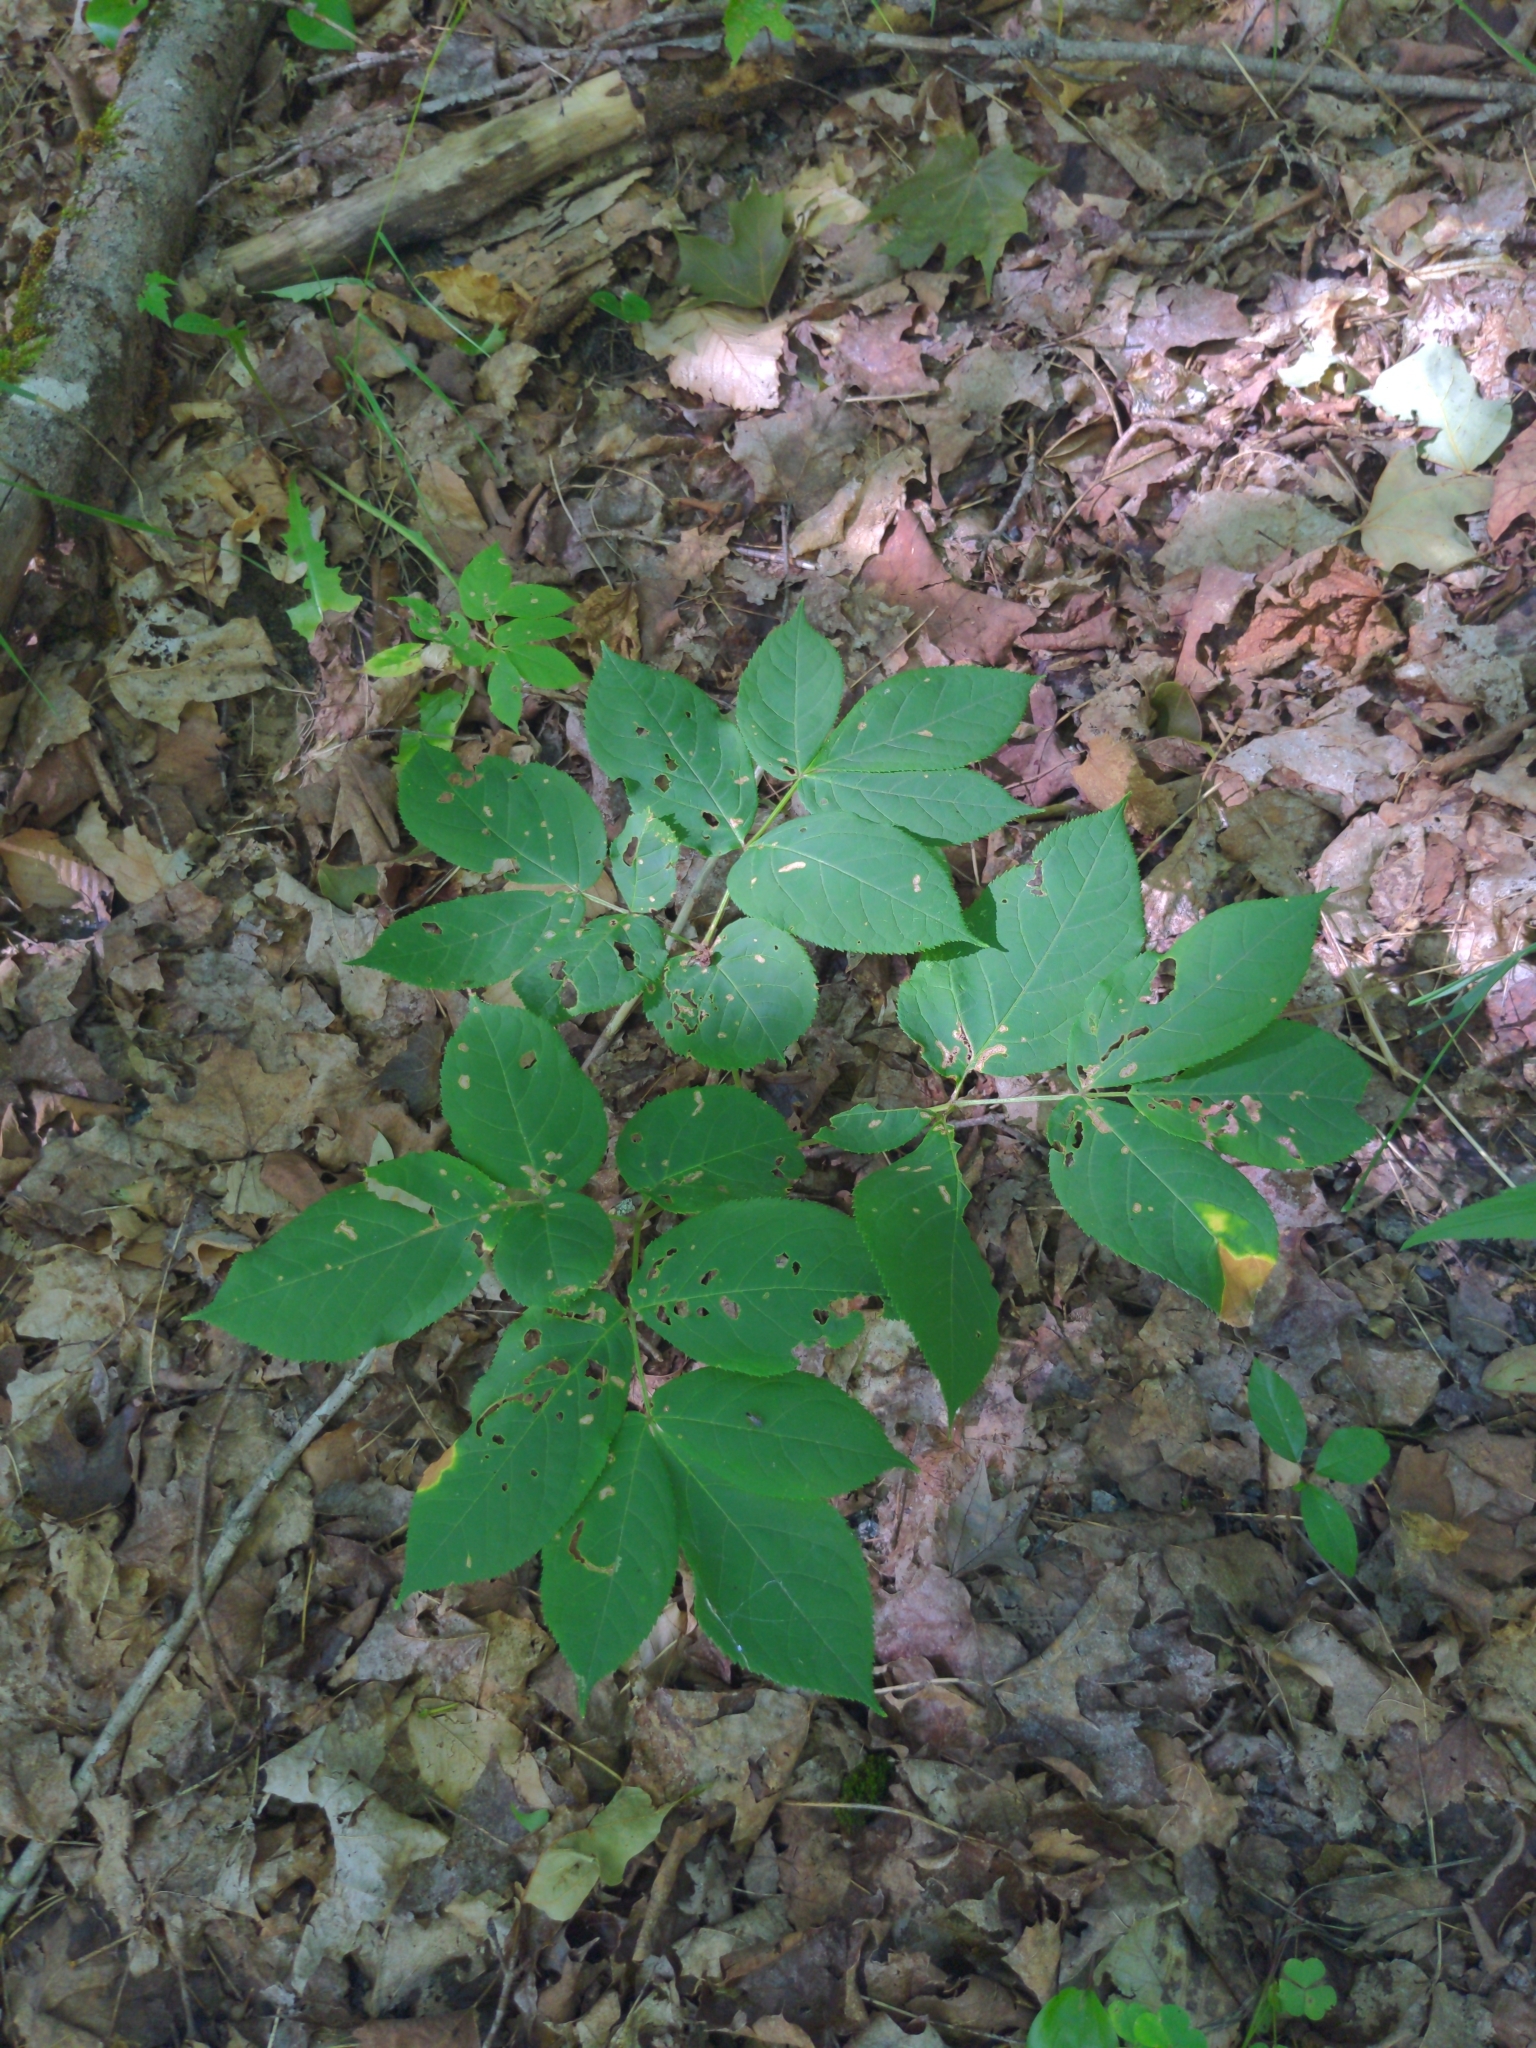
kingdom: Plantae
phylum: Tracheophyta
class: Magnoliopsida
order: Apiales
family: Araliaceae
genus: Aralia
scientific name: Aralia nudicaulis
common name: Wild sarsaparilla
